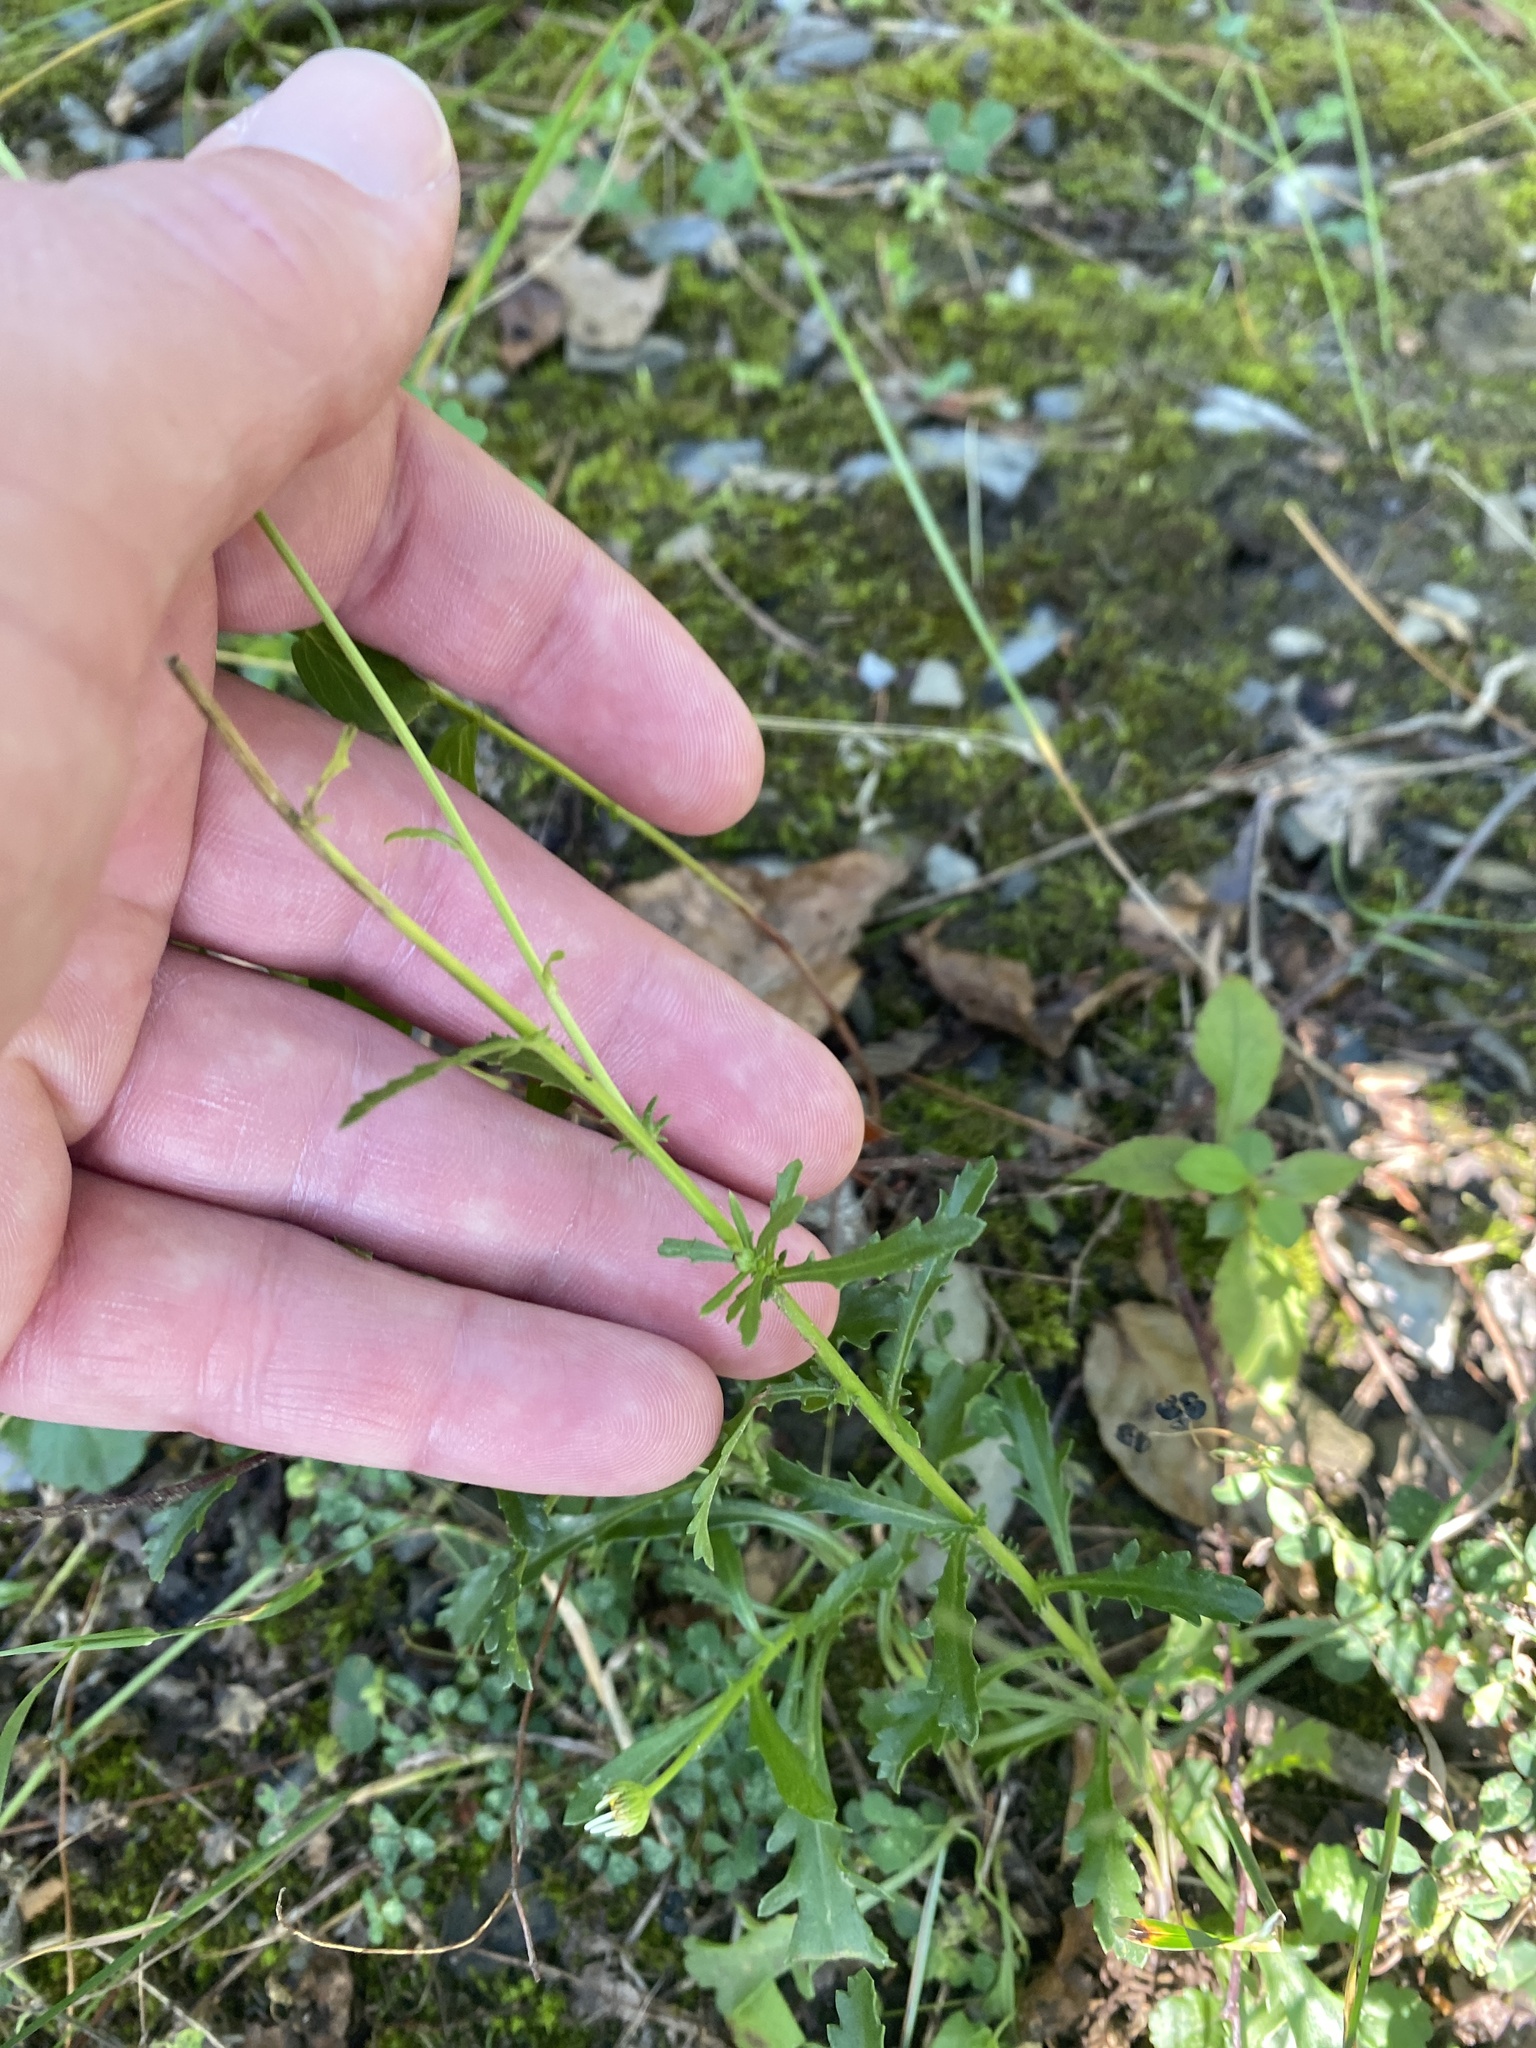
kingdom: Plantae
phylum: Tracheophyta
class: Magnoliopsida
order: Asterales
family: Asteraceae
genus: Leucanthemum
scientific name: Leucanthemum vulgare
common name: Oxeye daisy
